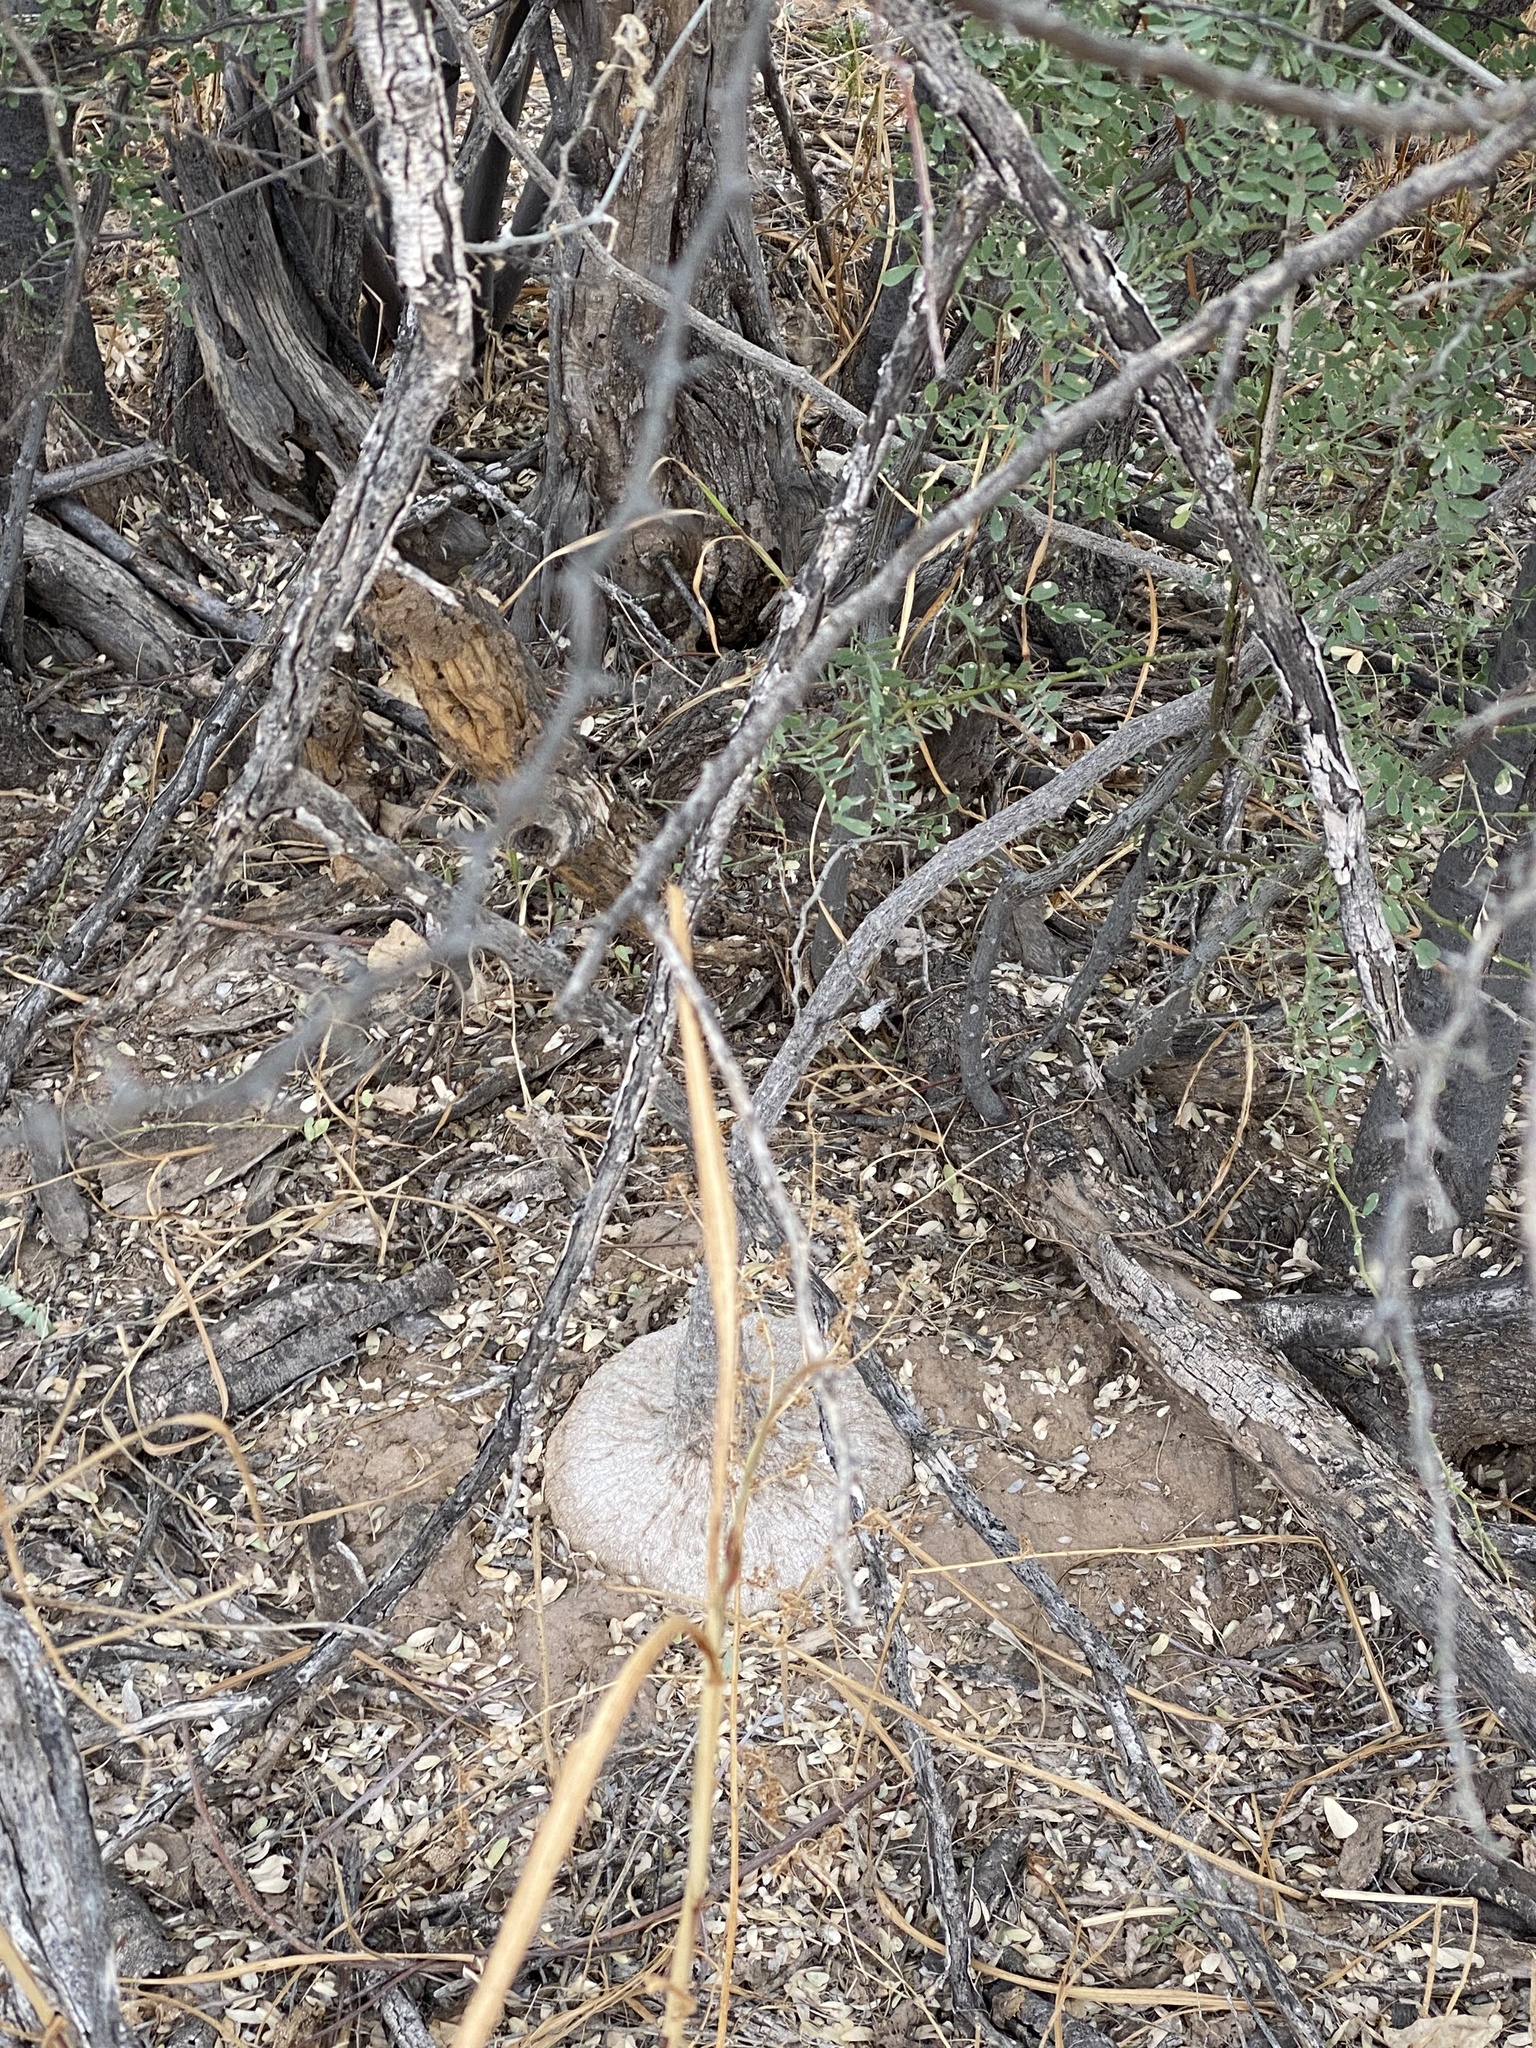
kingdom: Plantae
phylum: Tracheophyta
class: Magnoliopsida
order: Cucurbitales
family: Cucurbitaceae
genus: Ibervillea
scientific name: Ibervillea sonorae
